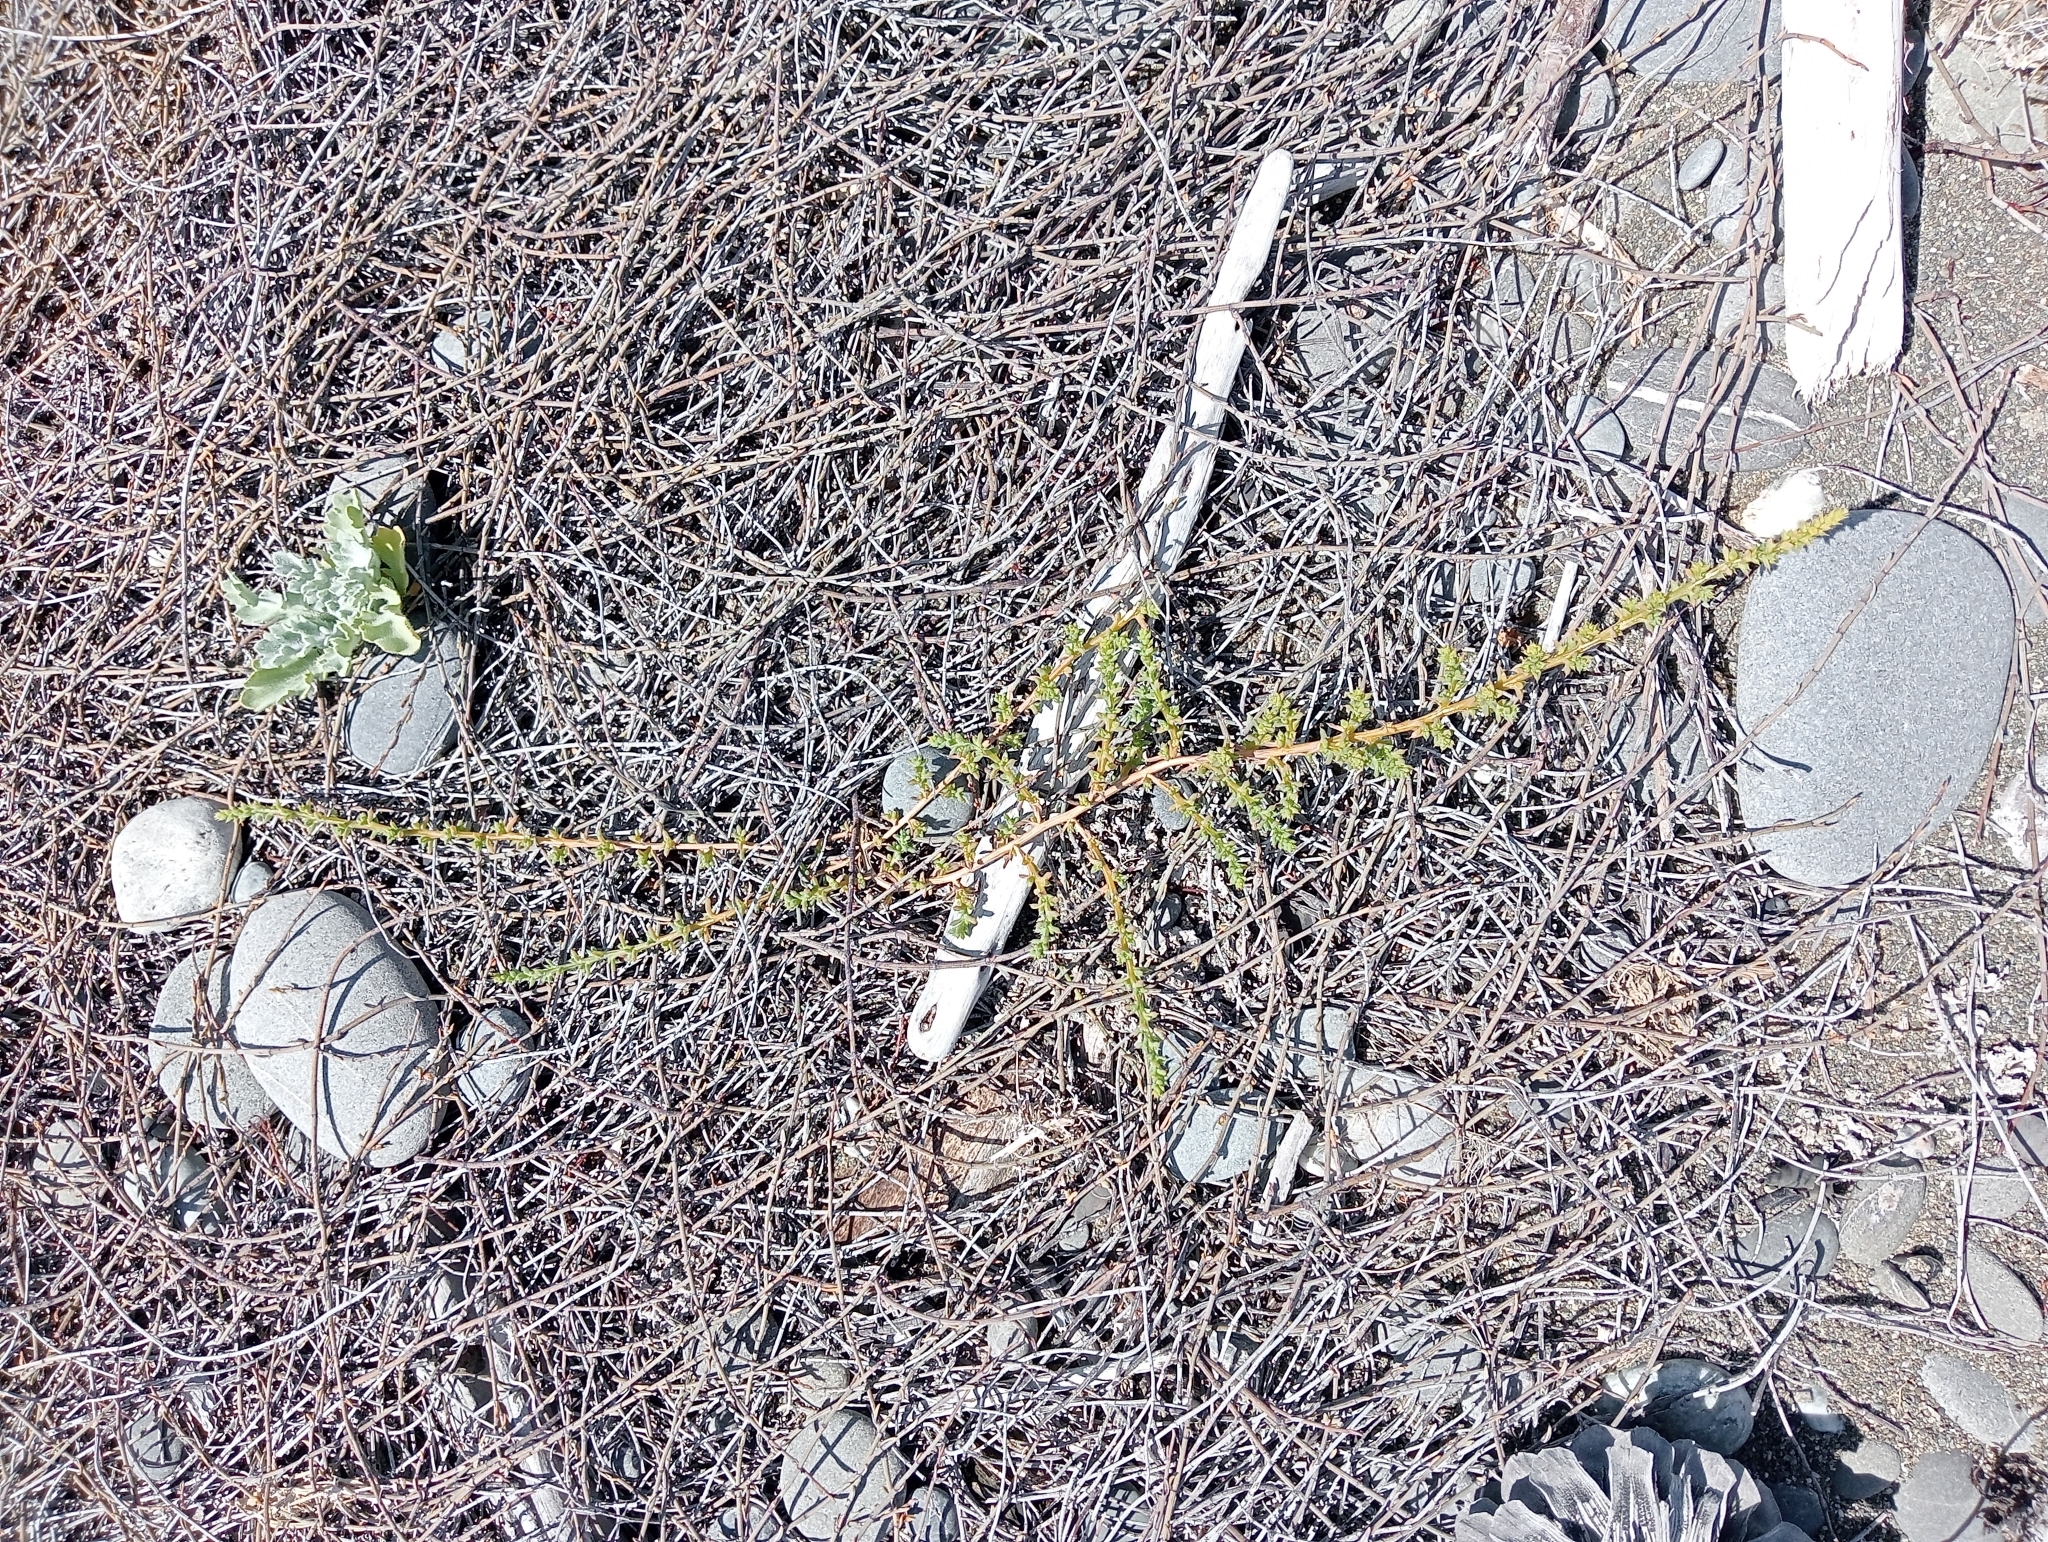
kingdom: Plantae
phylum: Tracheophyta
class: Magnoliopsida
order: Caryophyllales
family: Amaranthaceae
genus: Salsola
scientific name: Salsola kali
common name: Saltwort
